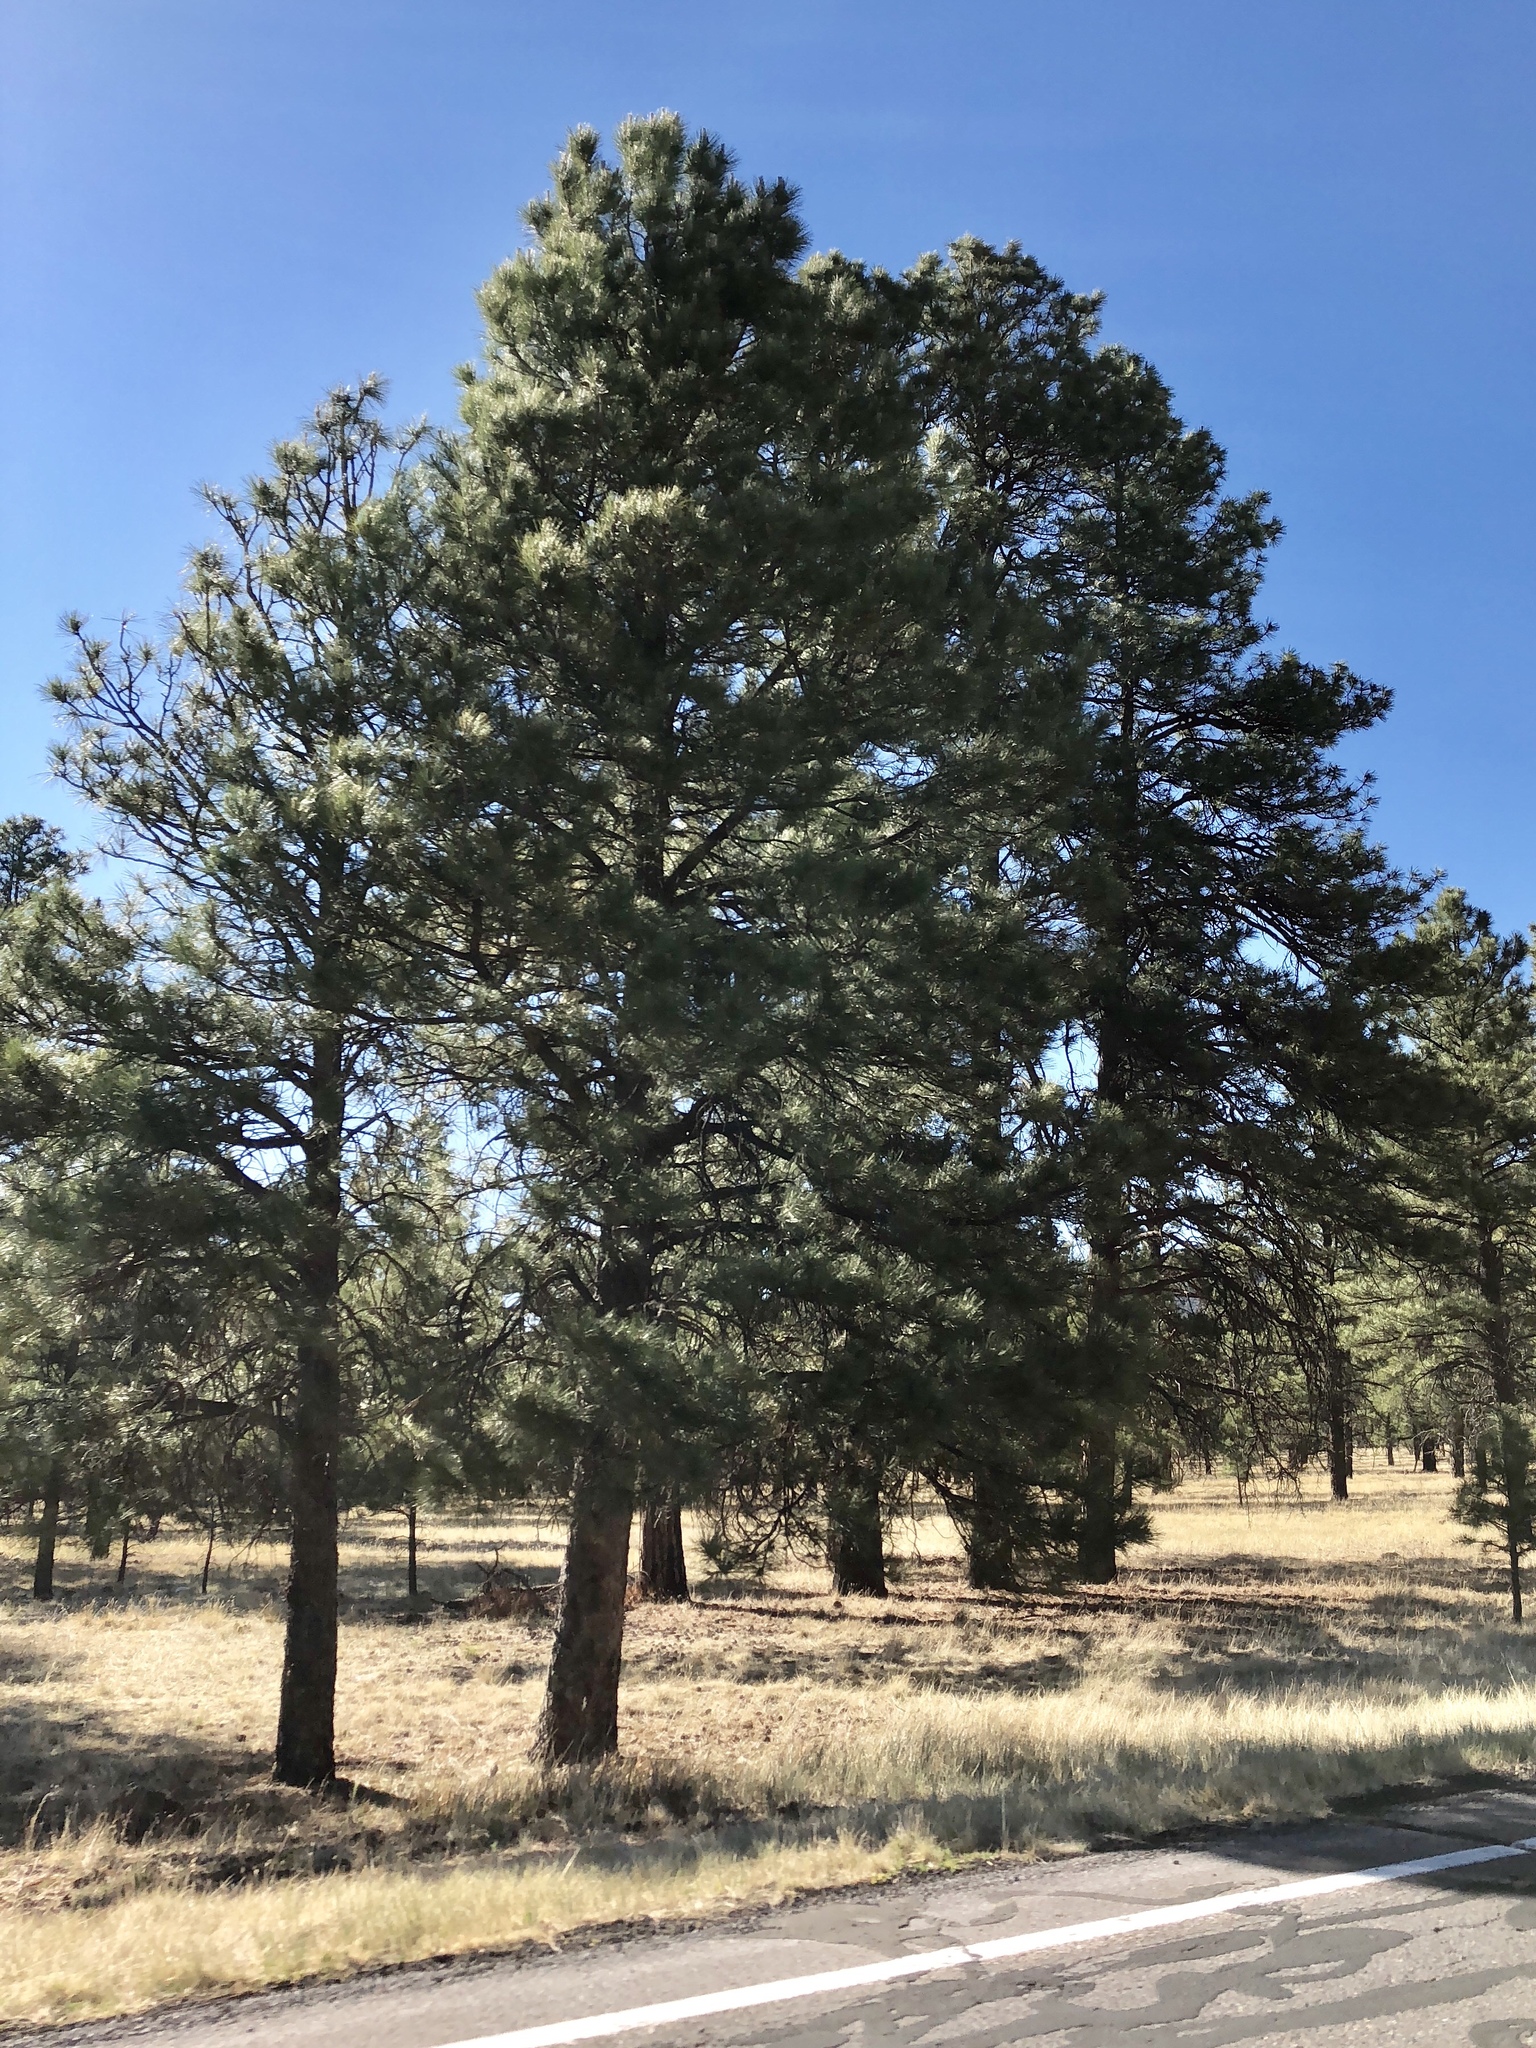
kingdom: Plantae
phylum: Tracheophyta
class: Pinopsida
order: Pinales
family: Pinaceae
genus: Pinus
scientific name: Pinus ponderosa
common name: Western yellow-pine
